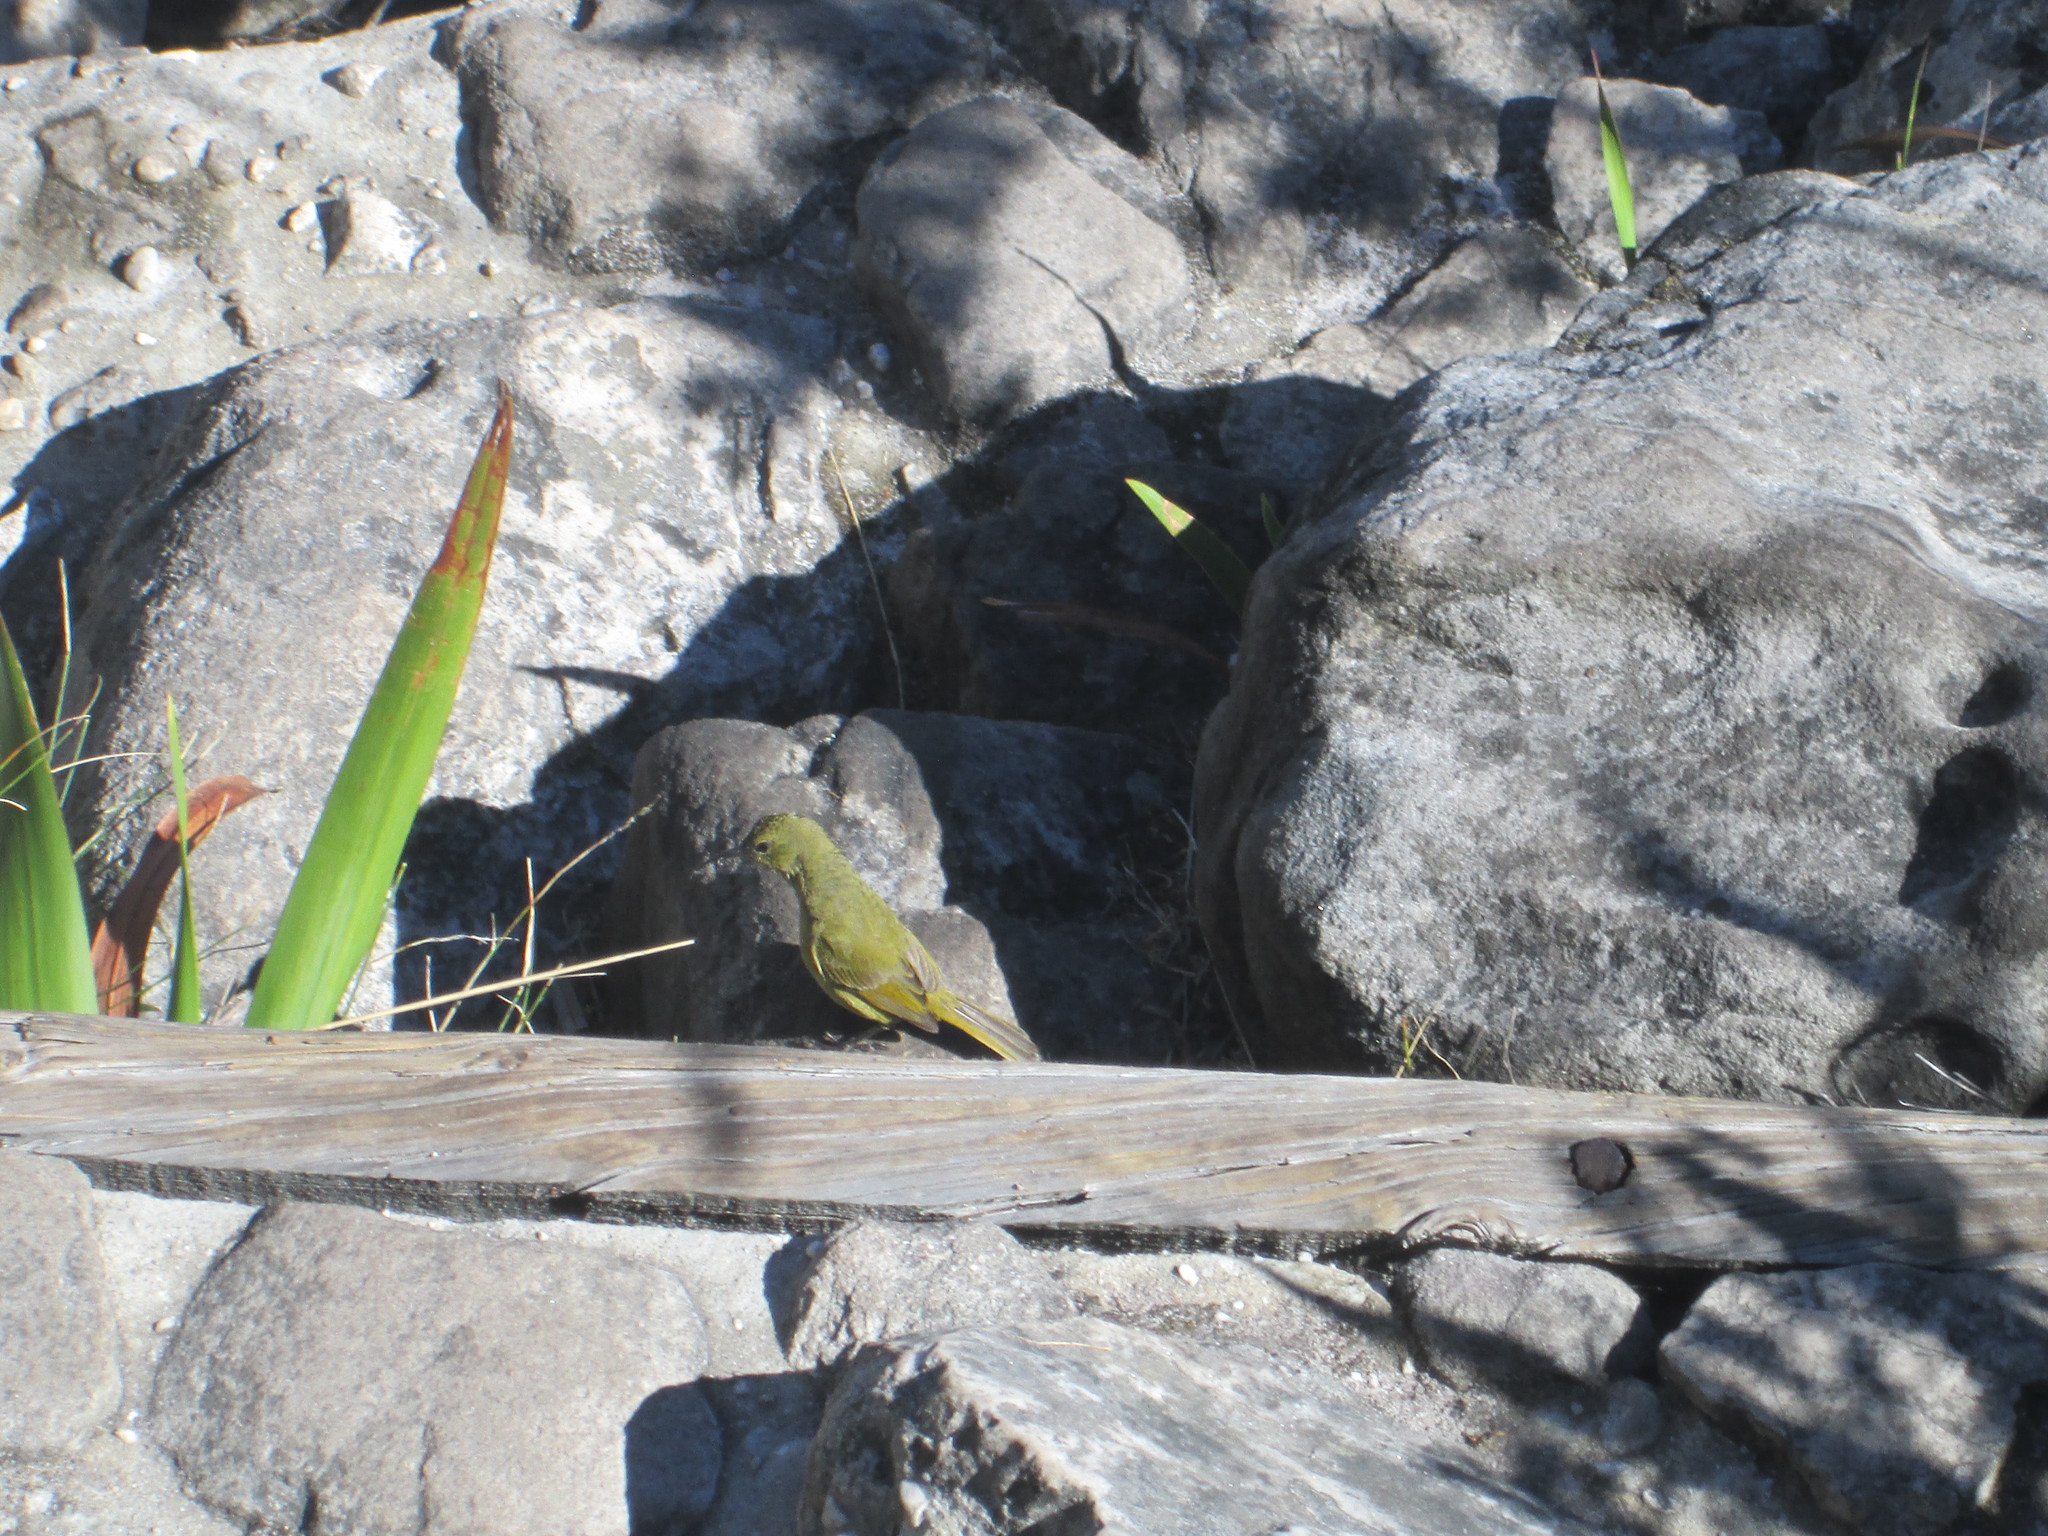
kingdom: Animalia
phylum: Chordata
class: Aves
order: Passeriformes
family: Nectariniidae
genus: Anthobaphes
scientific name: Anthobaphes violacea
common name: Orange-breasted sunbird
